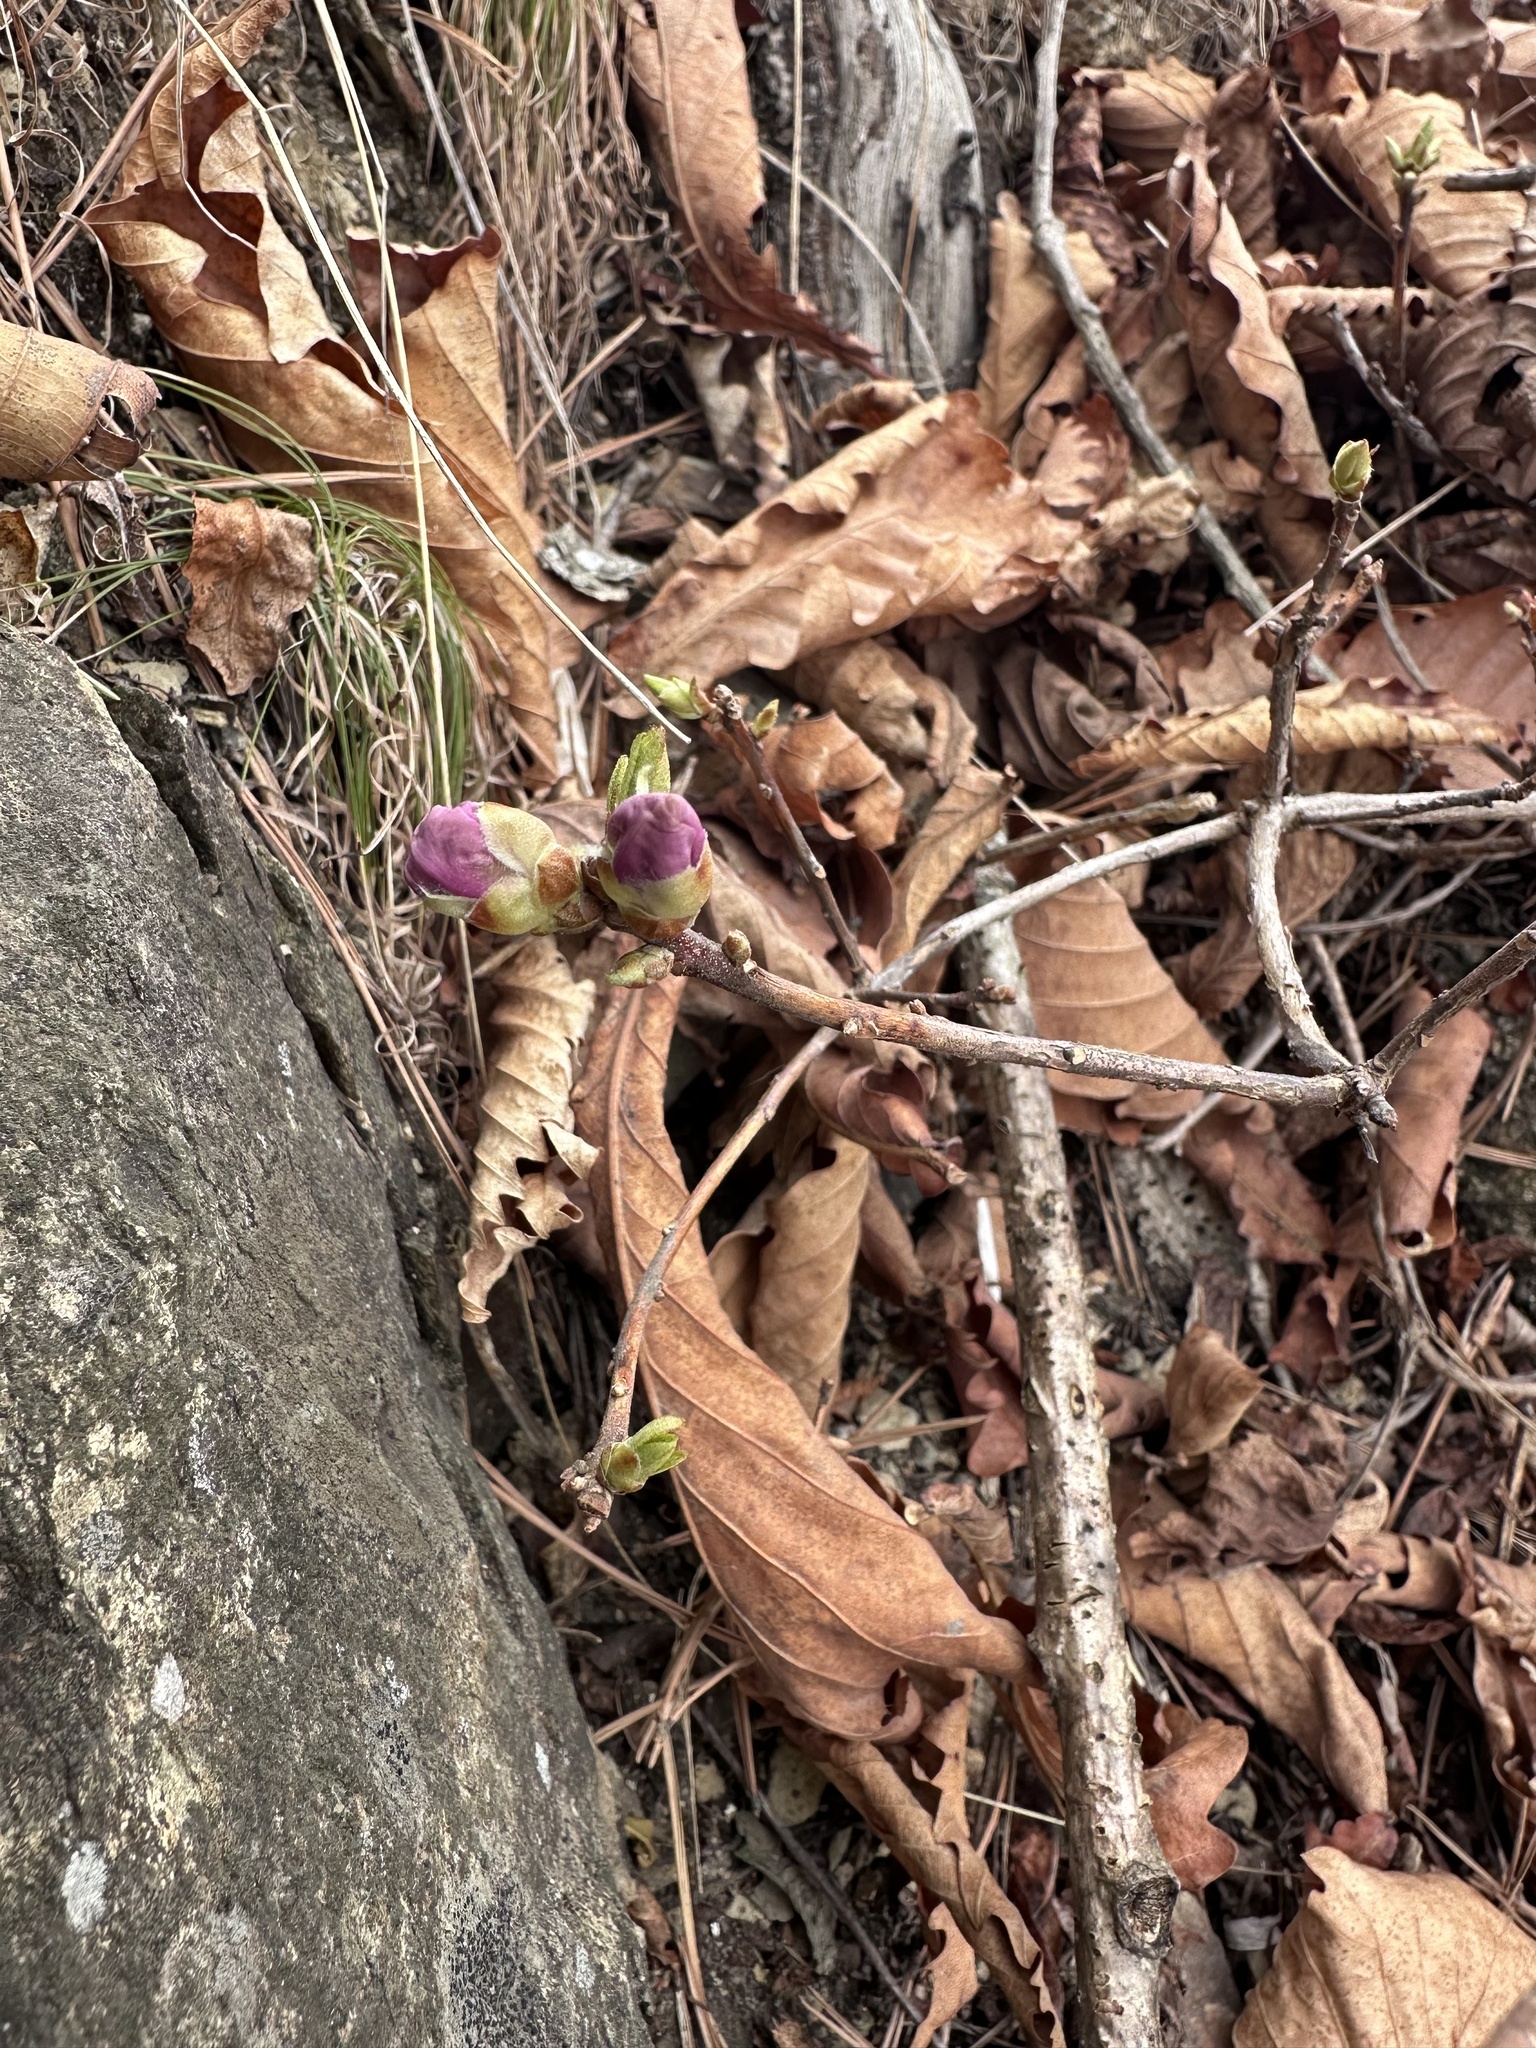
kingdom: Plantae
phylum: Tracheophyta
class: Magnoliopsida
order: Ericales
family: Ericaceae
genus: Rhododendron
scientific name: Rhododendron mucronulatum
